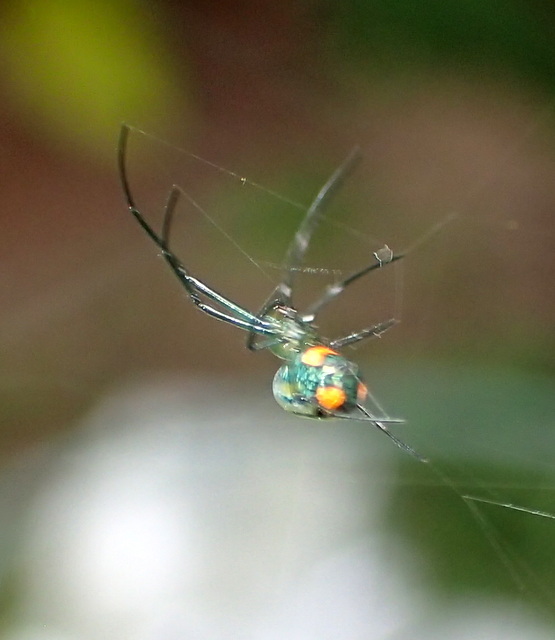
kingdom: Animalia
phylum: Arthropoda
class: Arachnida
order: Araneae
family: Tetragnathidae
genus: Leucauge
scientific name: Leucauge argyrobapta
